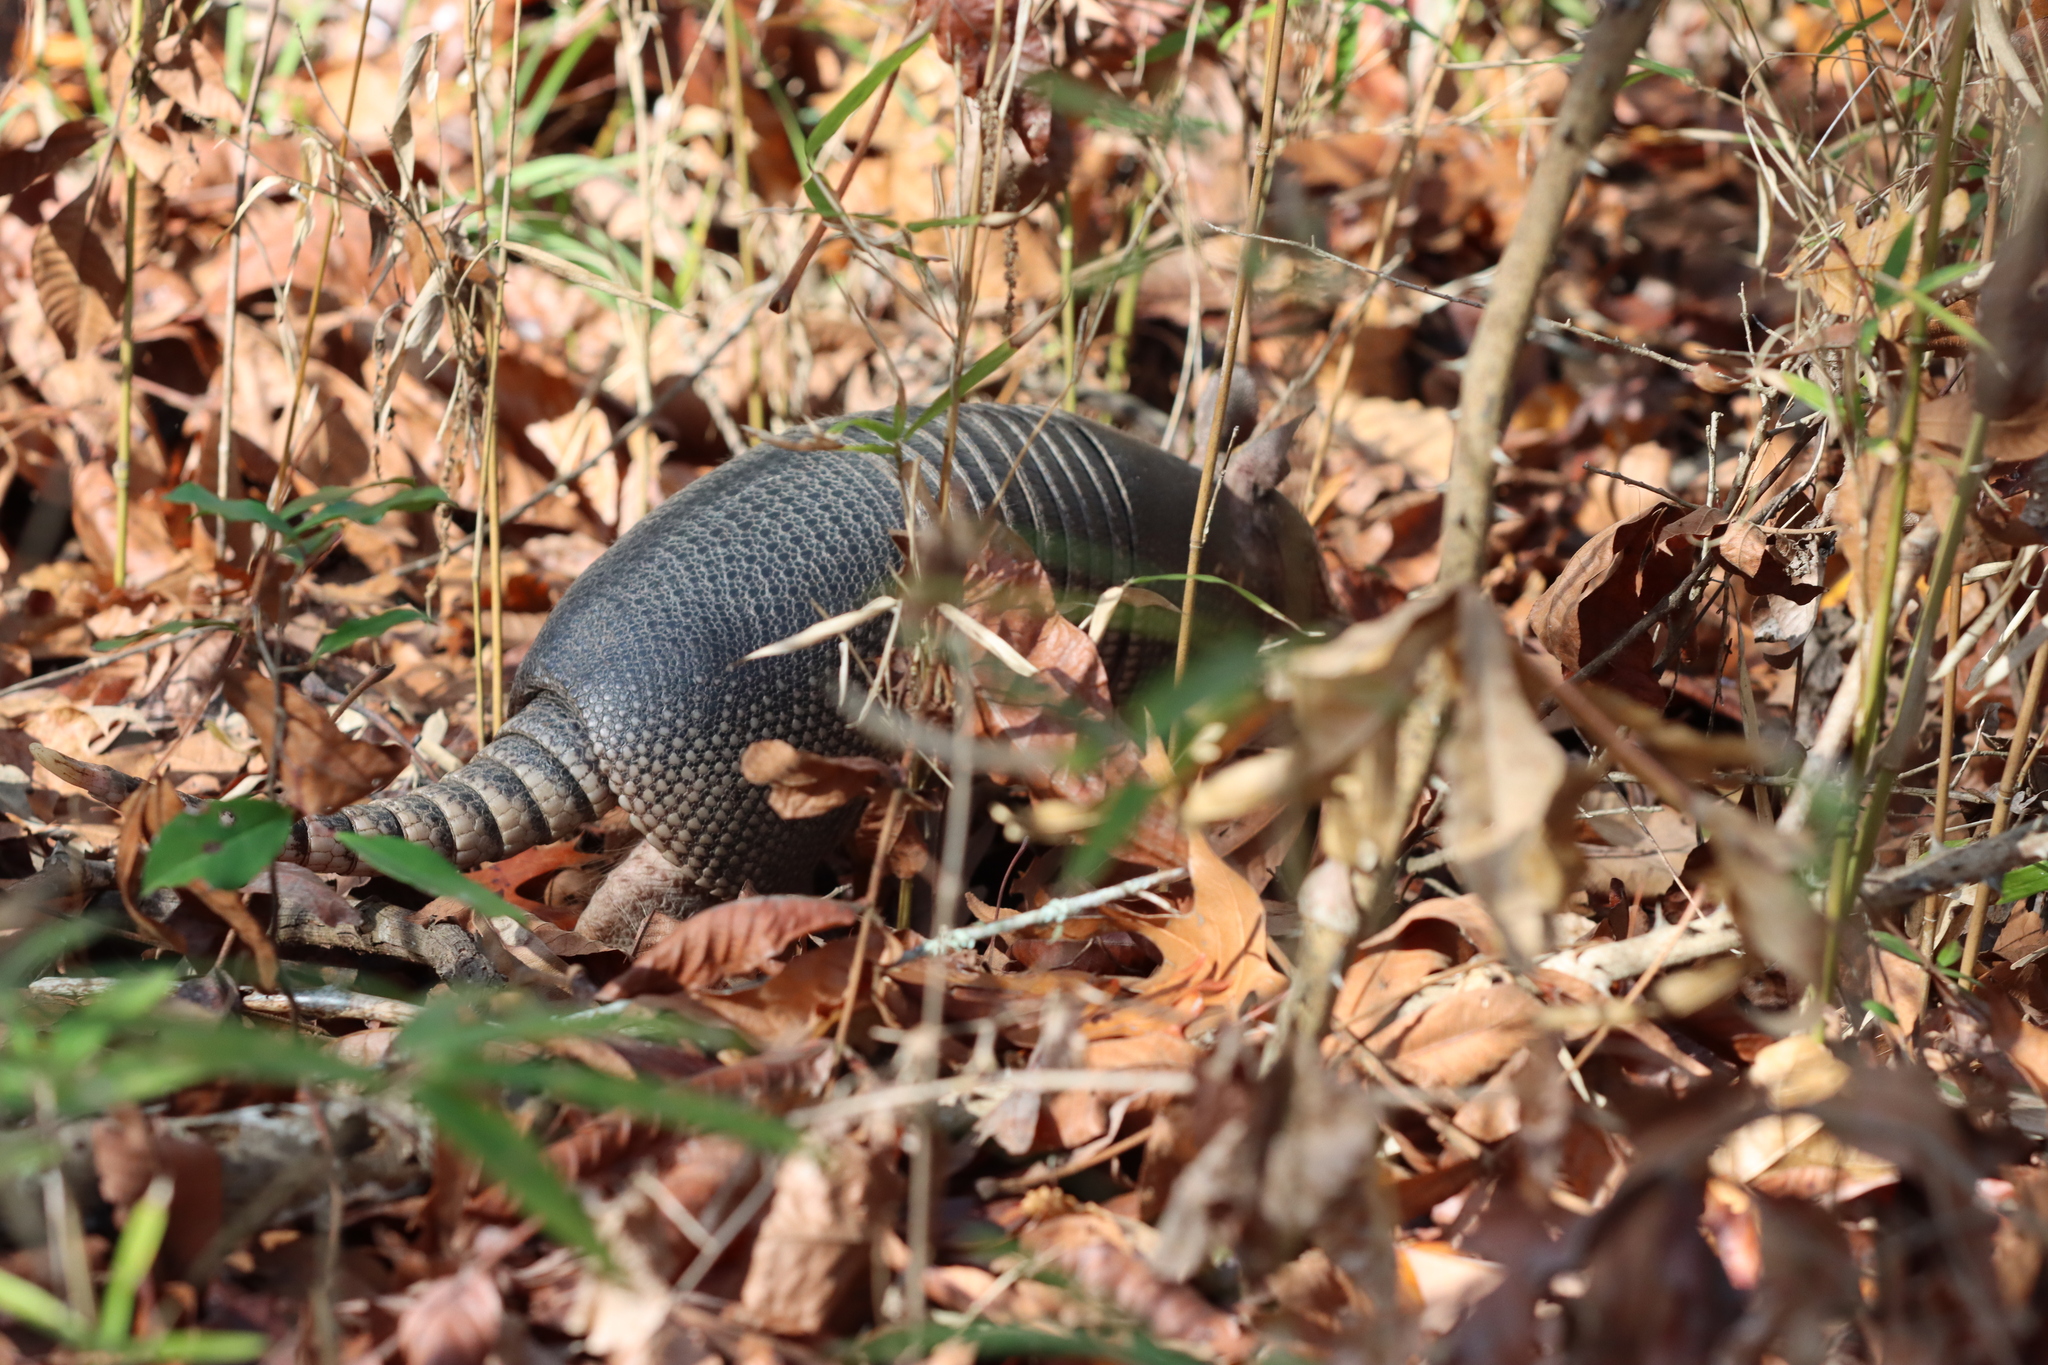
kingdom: Animalia
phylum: Chordata
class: Mammalia
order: Cingulata
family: Dasypodidae
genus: Dasypus
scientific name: Dasypus novemcinctus
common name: Nine-banded armadillo
